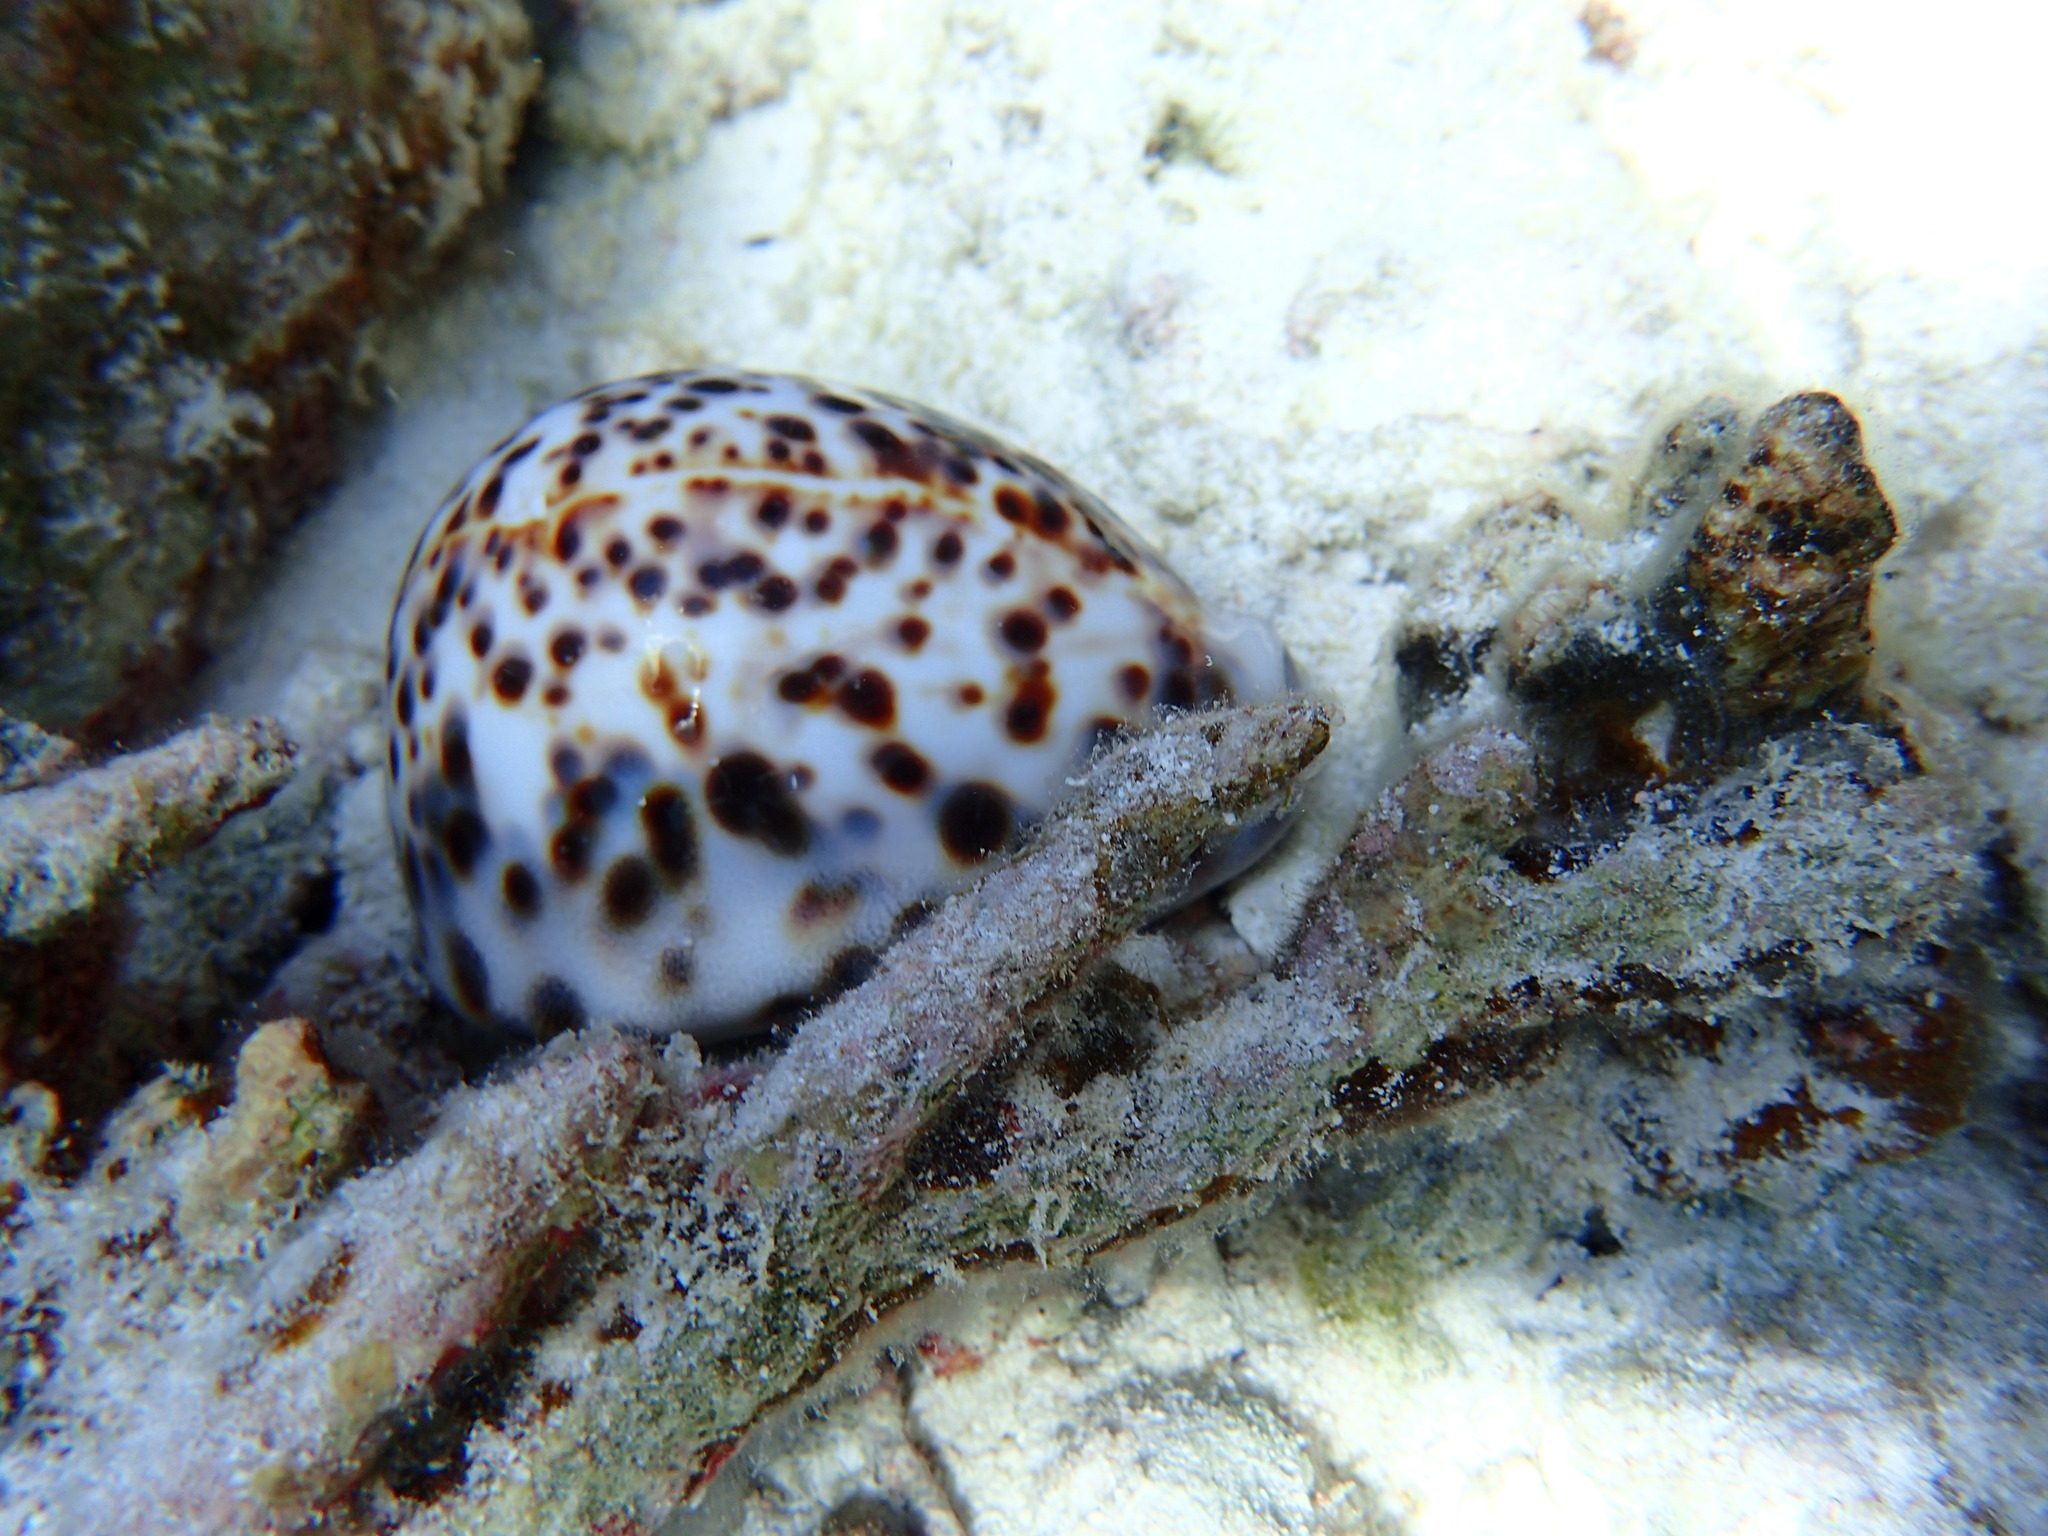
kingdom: Animalia
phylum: Mollusca
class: Gastropoda
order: Littorinimorpha
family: Cypraeidae
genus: Cypraea
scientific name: Cypraea tigris
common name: Tiger cowrie
